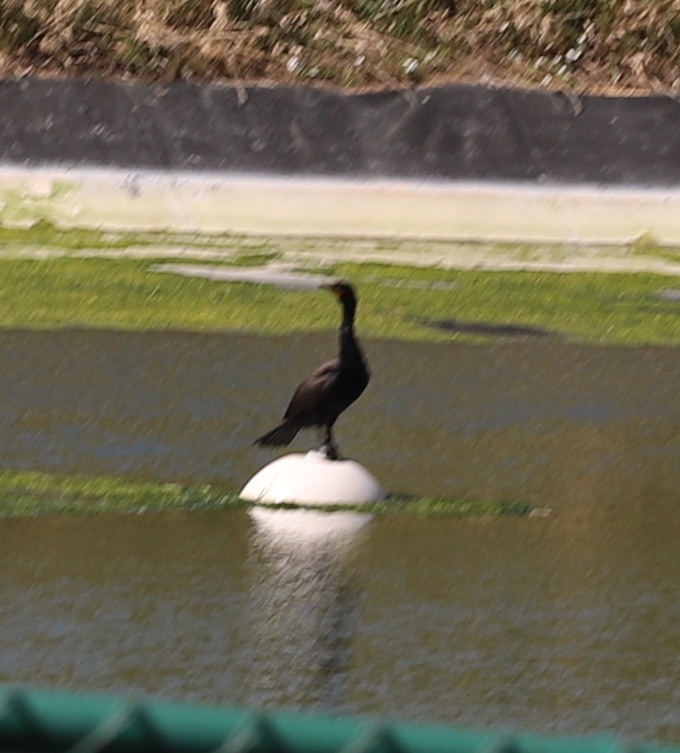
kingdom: Animalia
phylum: Chordata
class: Aves
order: Suliformes
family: Phalacrocoracidae
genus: Phalacrocorax
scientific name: Phalacrocorax auritus
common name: Double-crested cormorant
